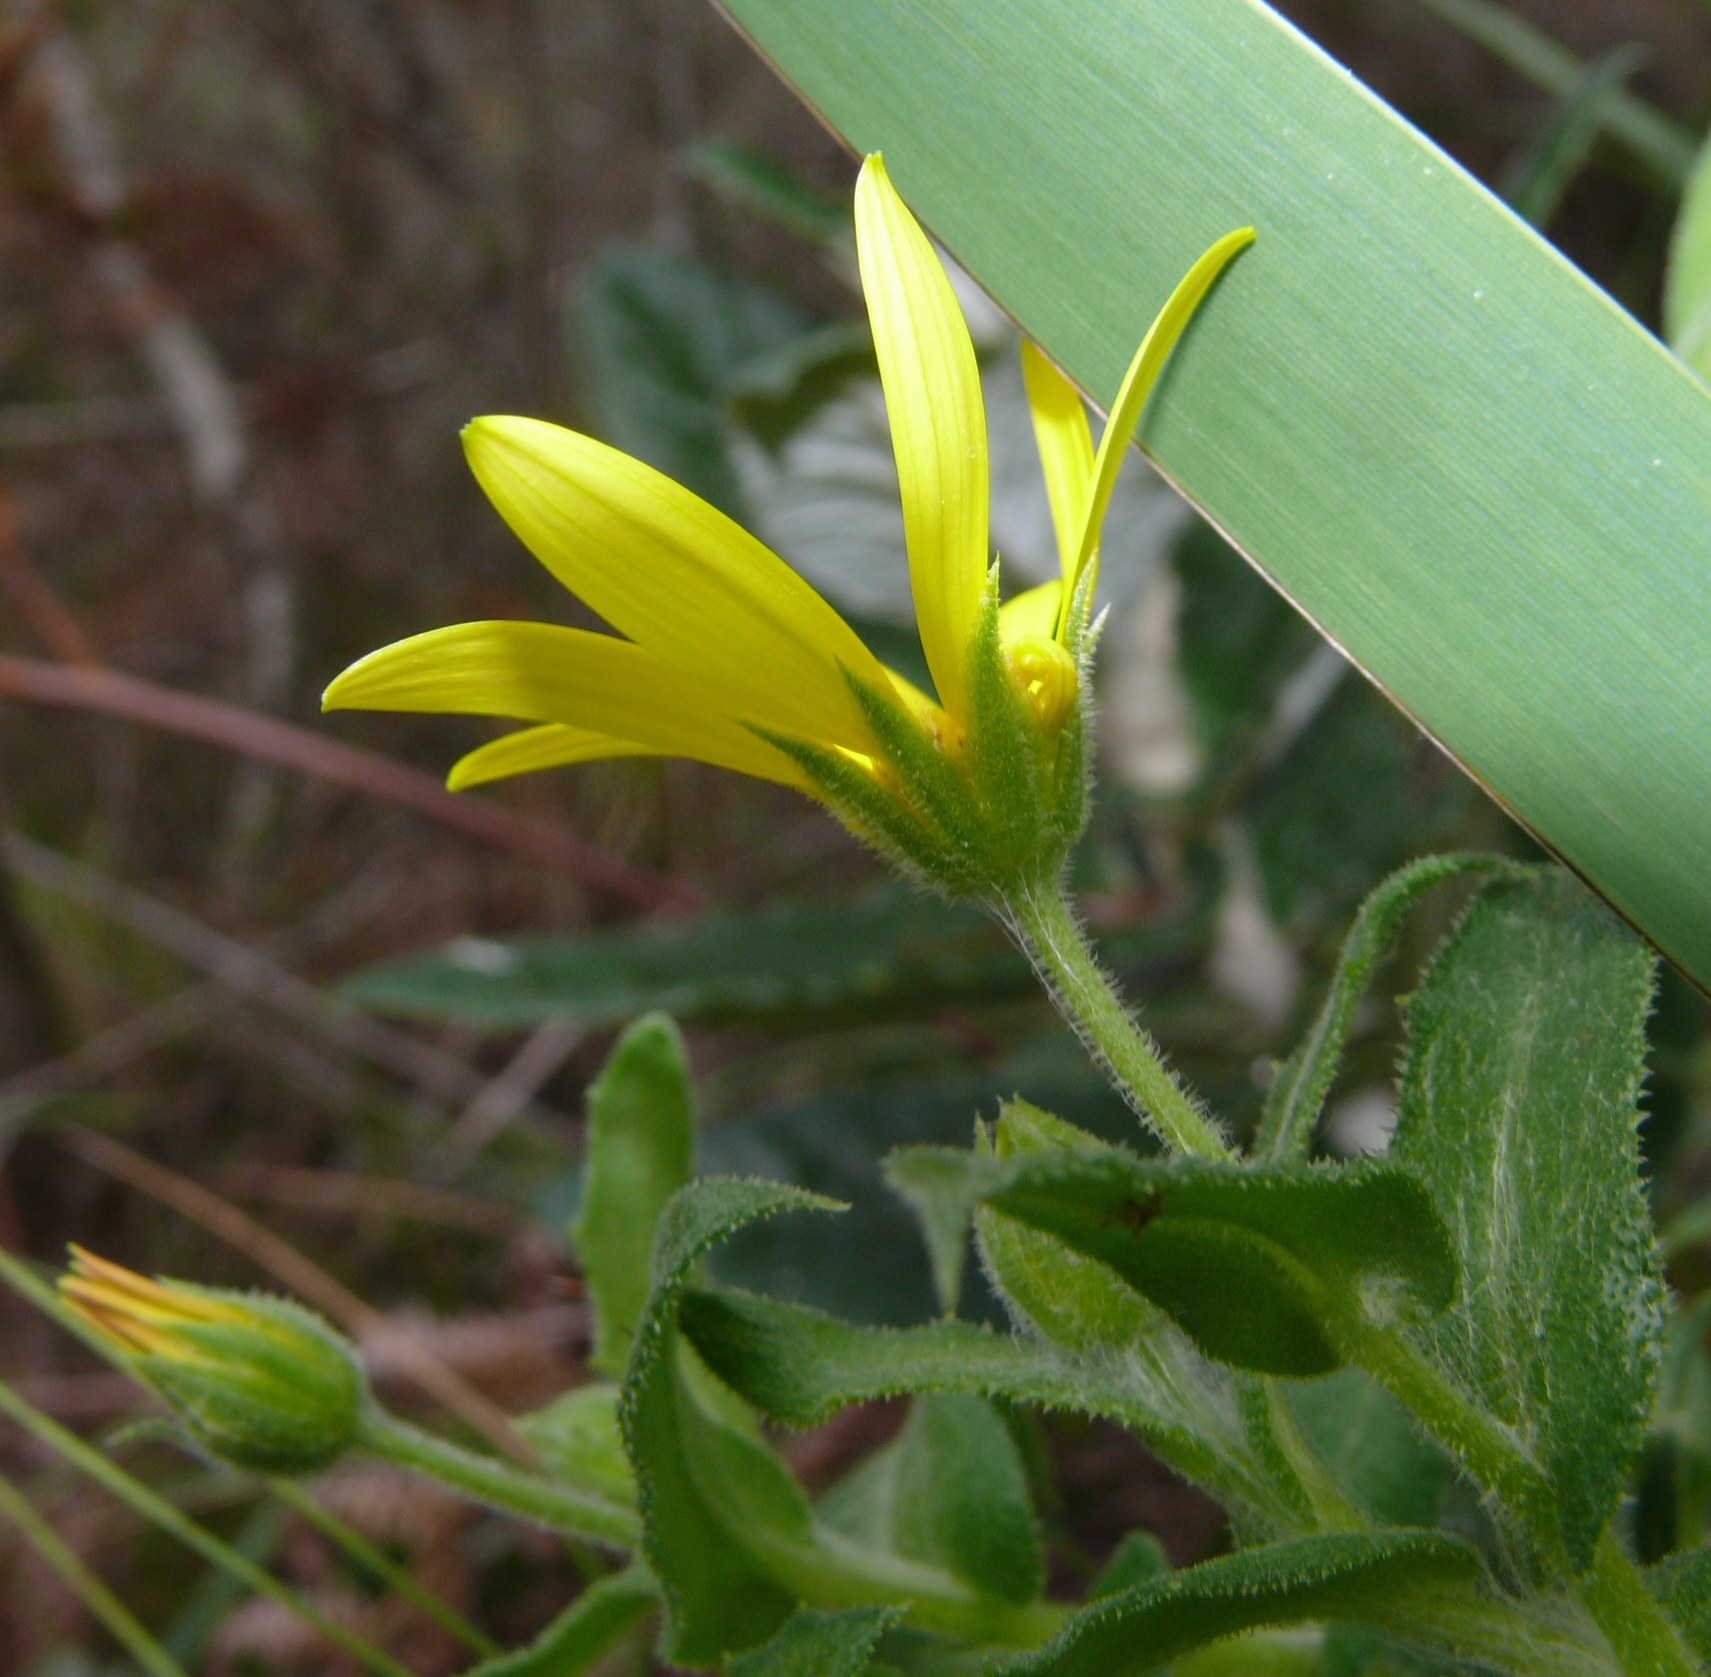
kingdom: Plantae
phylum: Tracheophyta
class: Magnoliopsida
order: Asterales
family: Asteraceae
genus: Osteospermum
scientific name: Osteospermum ilicifolium
